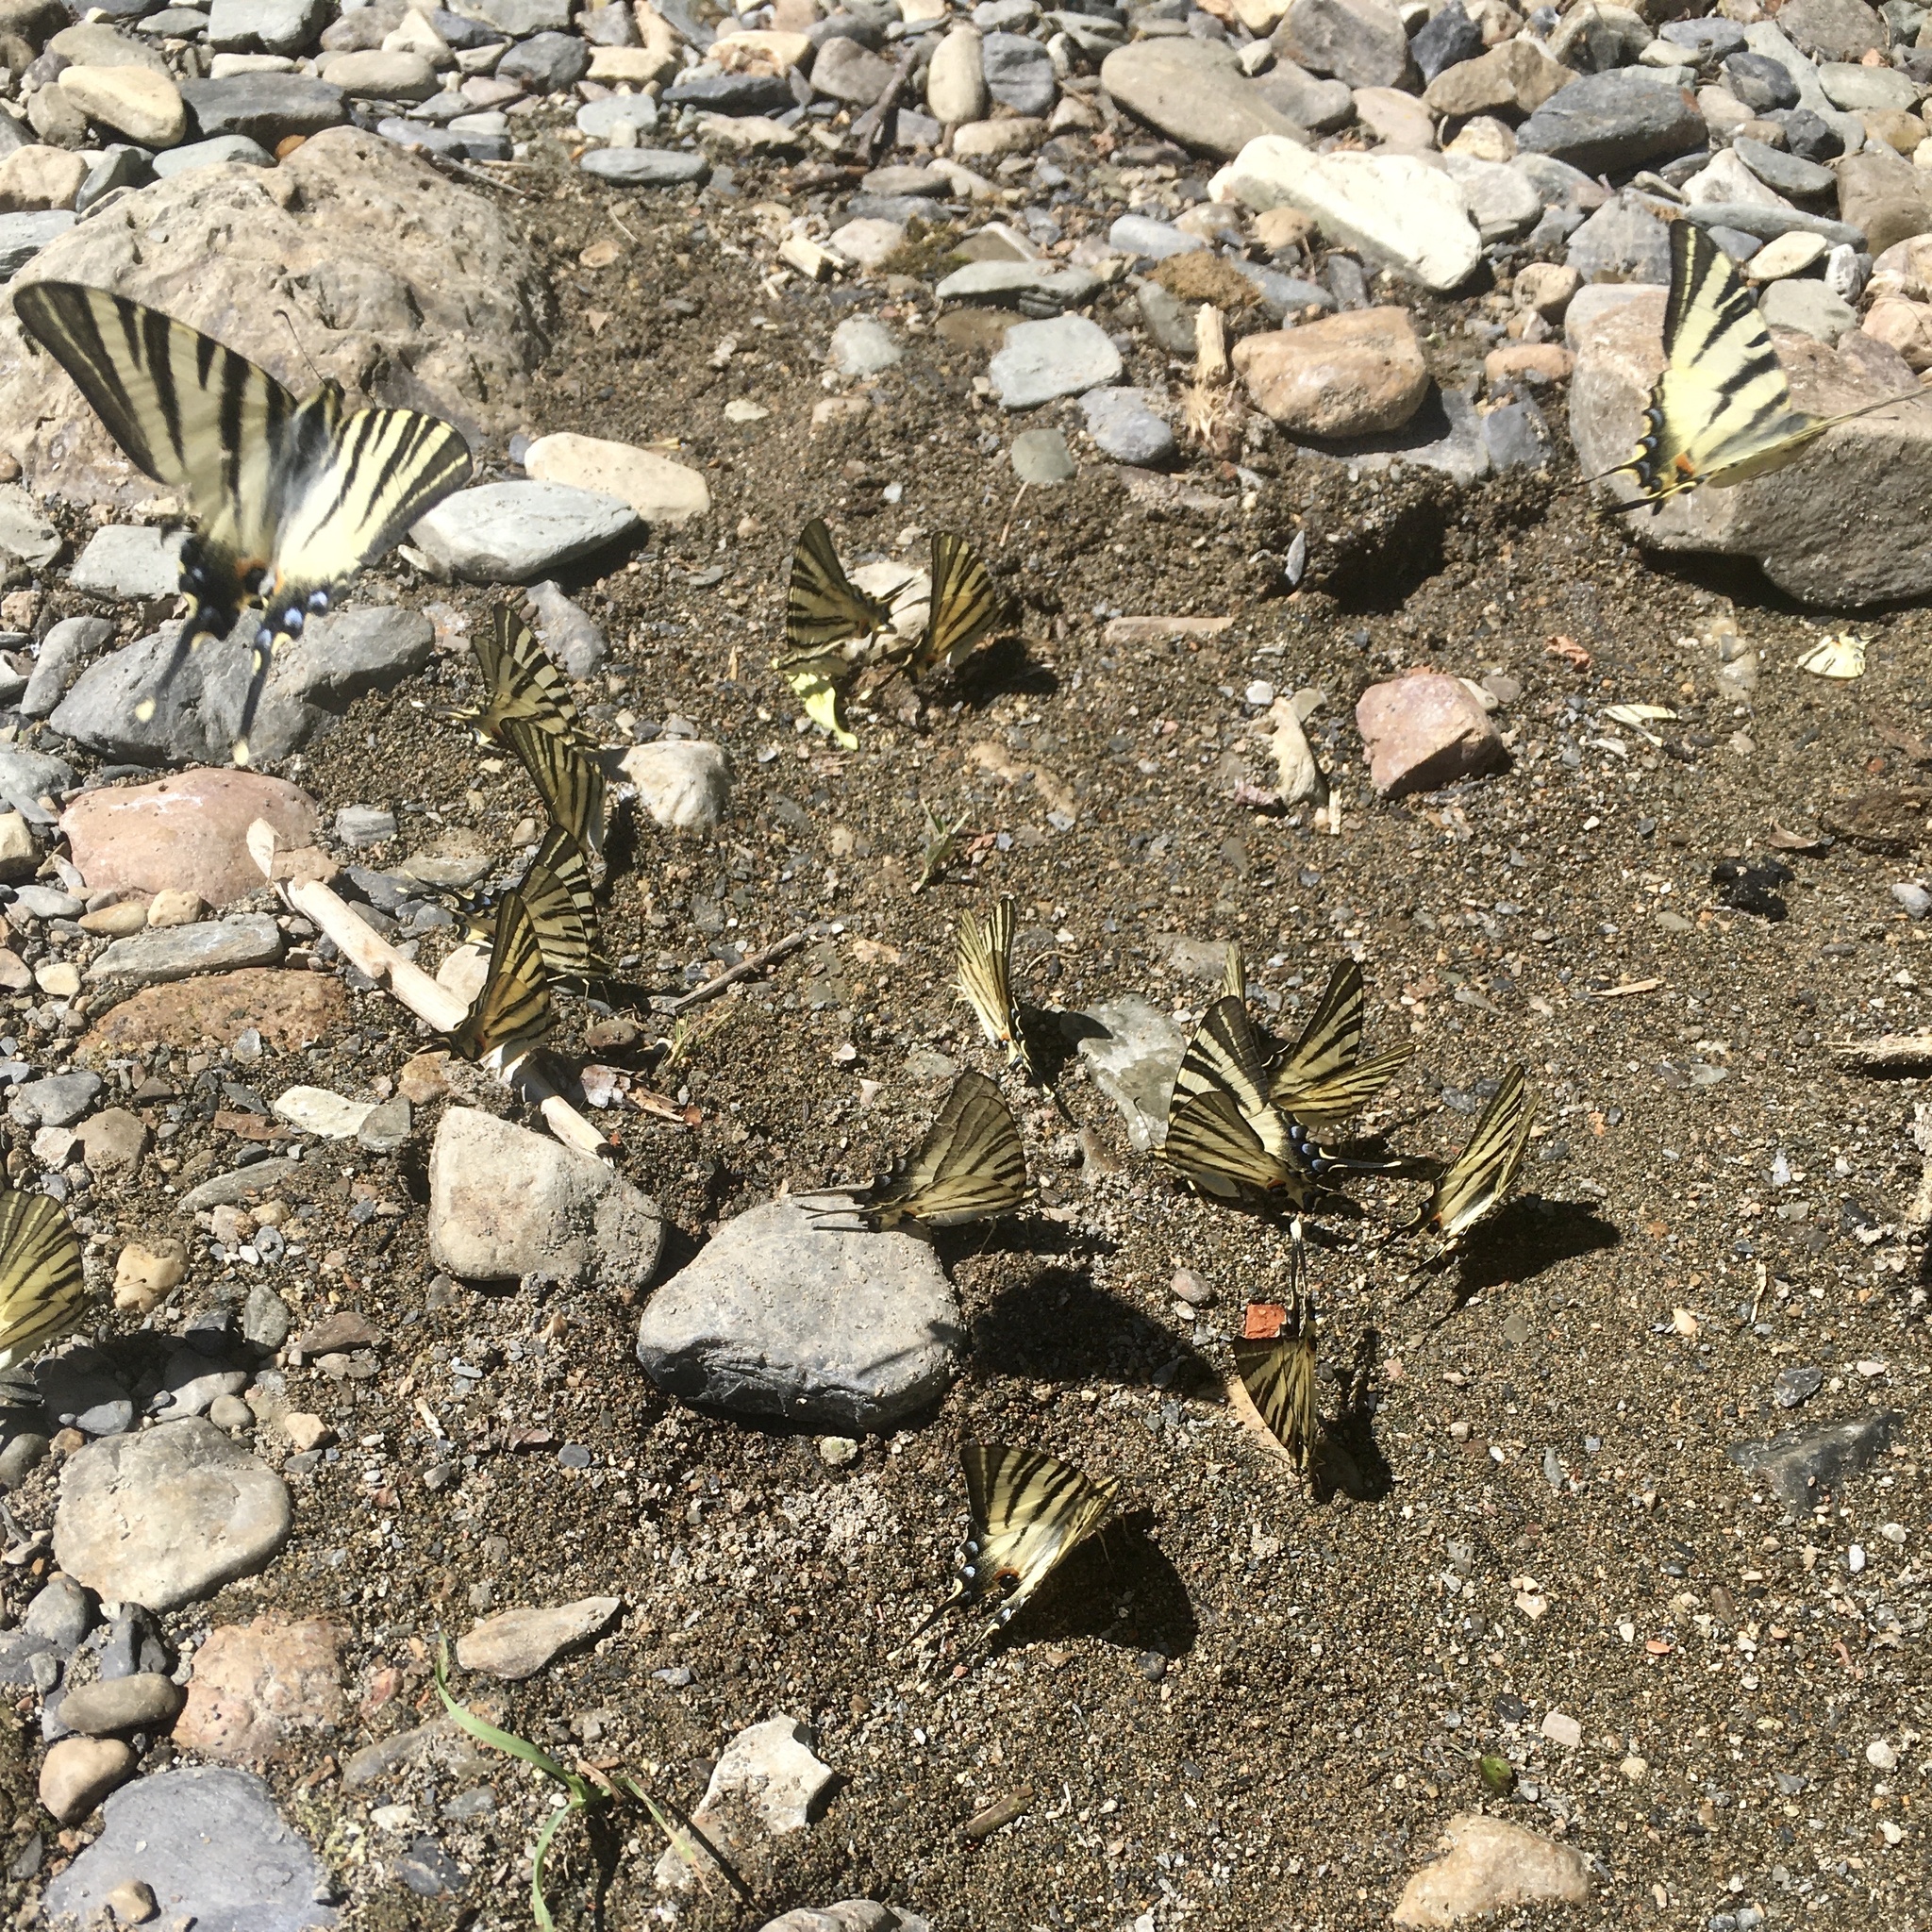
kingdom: Animalia
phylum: Arthropoda
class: Insecta
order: Lepidoptera
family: Papilionidae
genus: Iphiclides
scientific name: Iphiclides podalirius
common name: Scarce swallowtail
